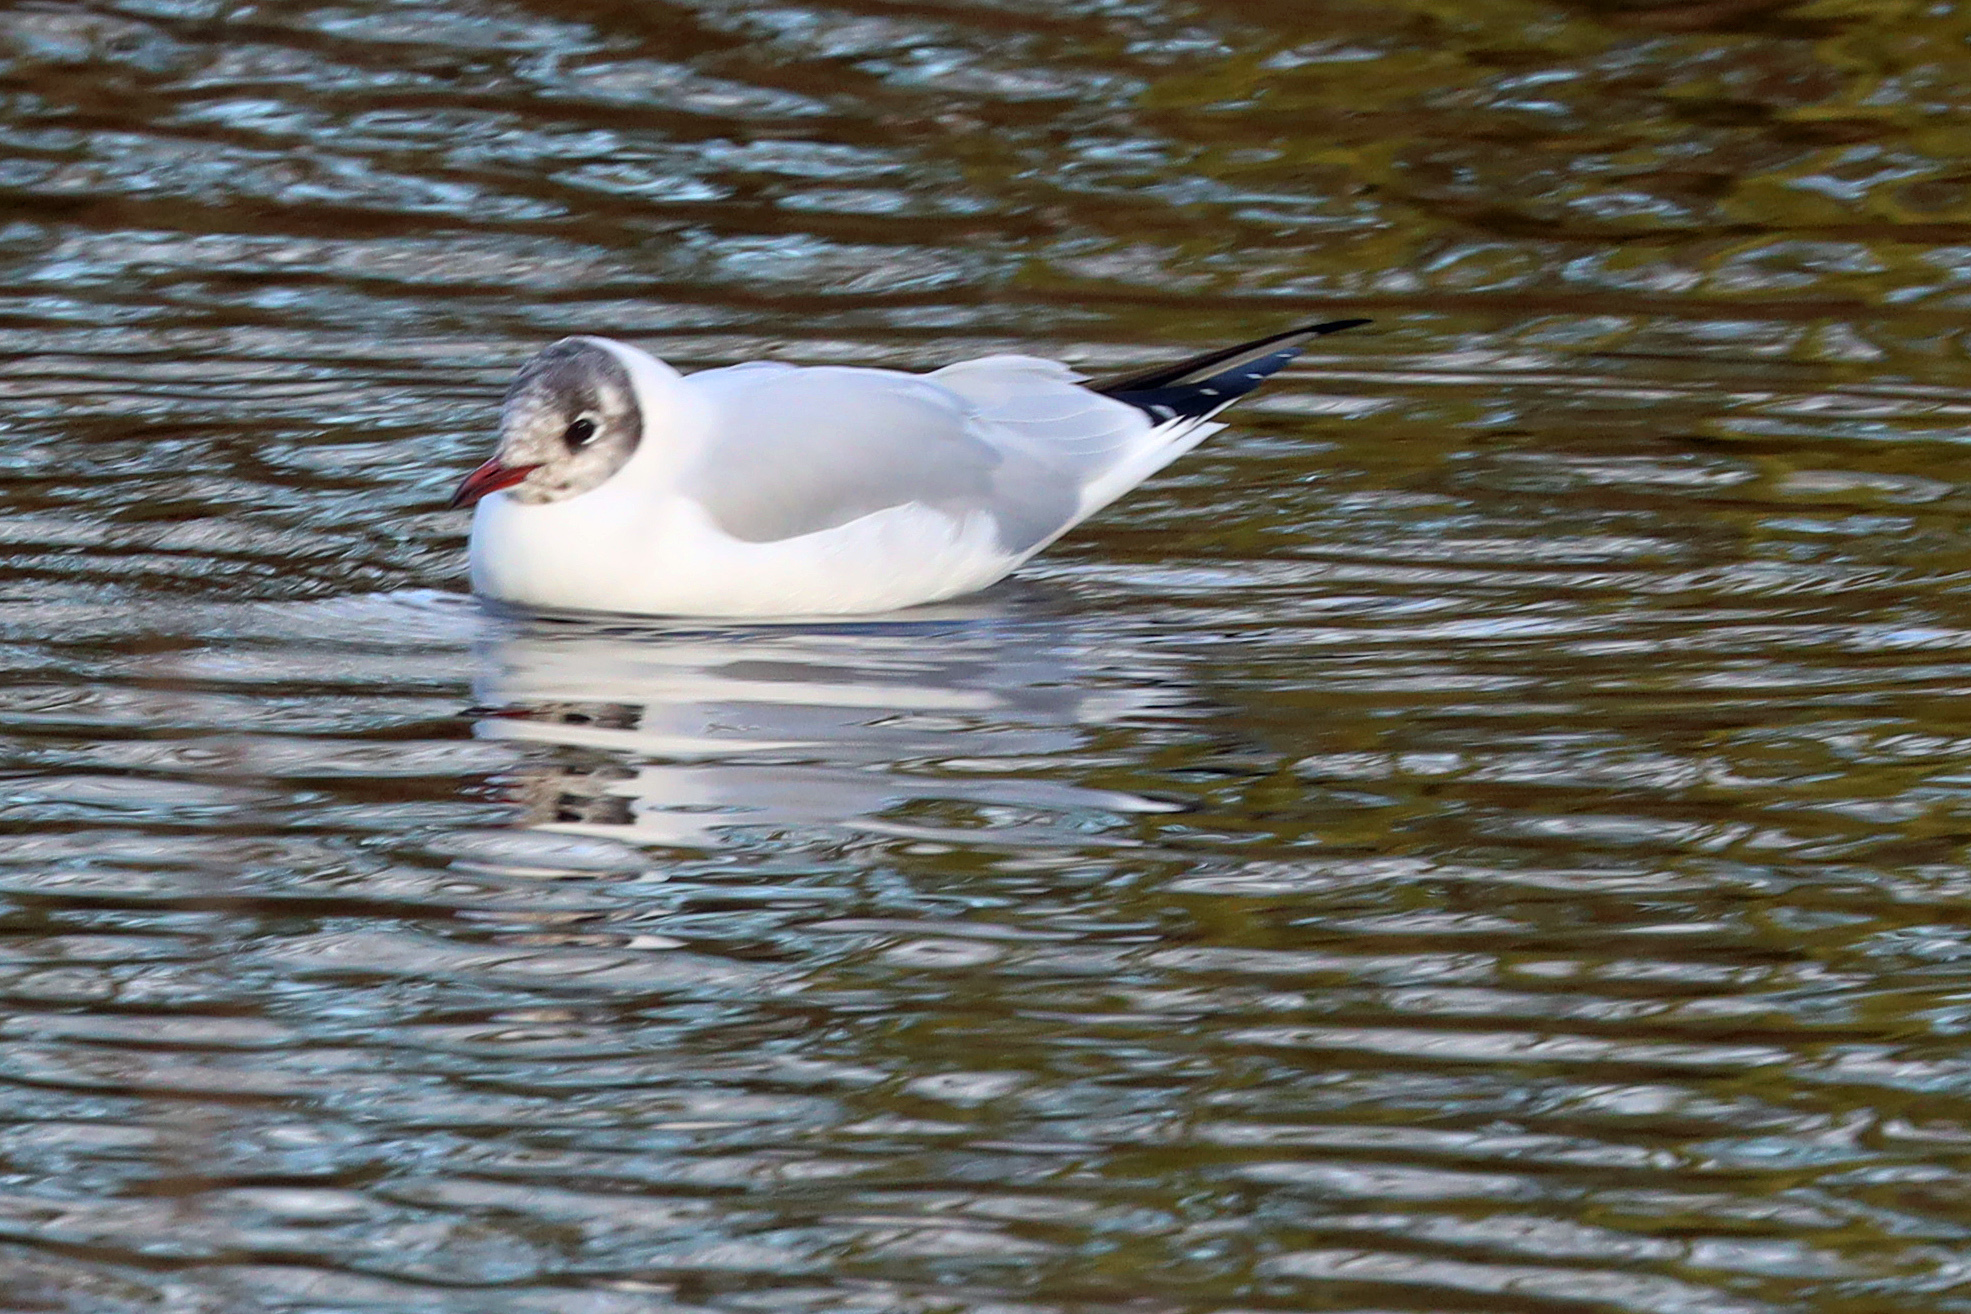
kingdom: Animalia
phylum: Chordata
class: Aves
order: Charadriiformes
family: Laridae
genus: Chroicocephalus
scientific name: Chroicocephalus ridibundus
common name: Black-headed gull
